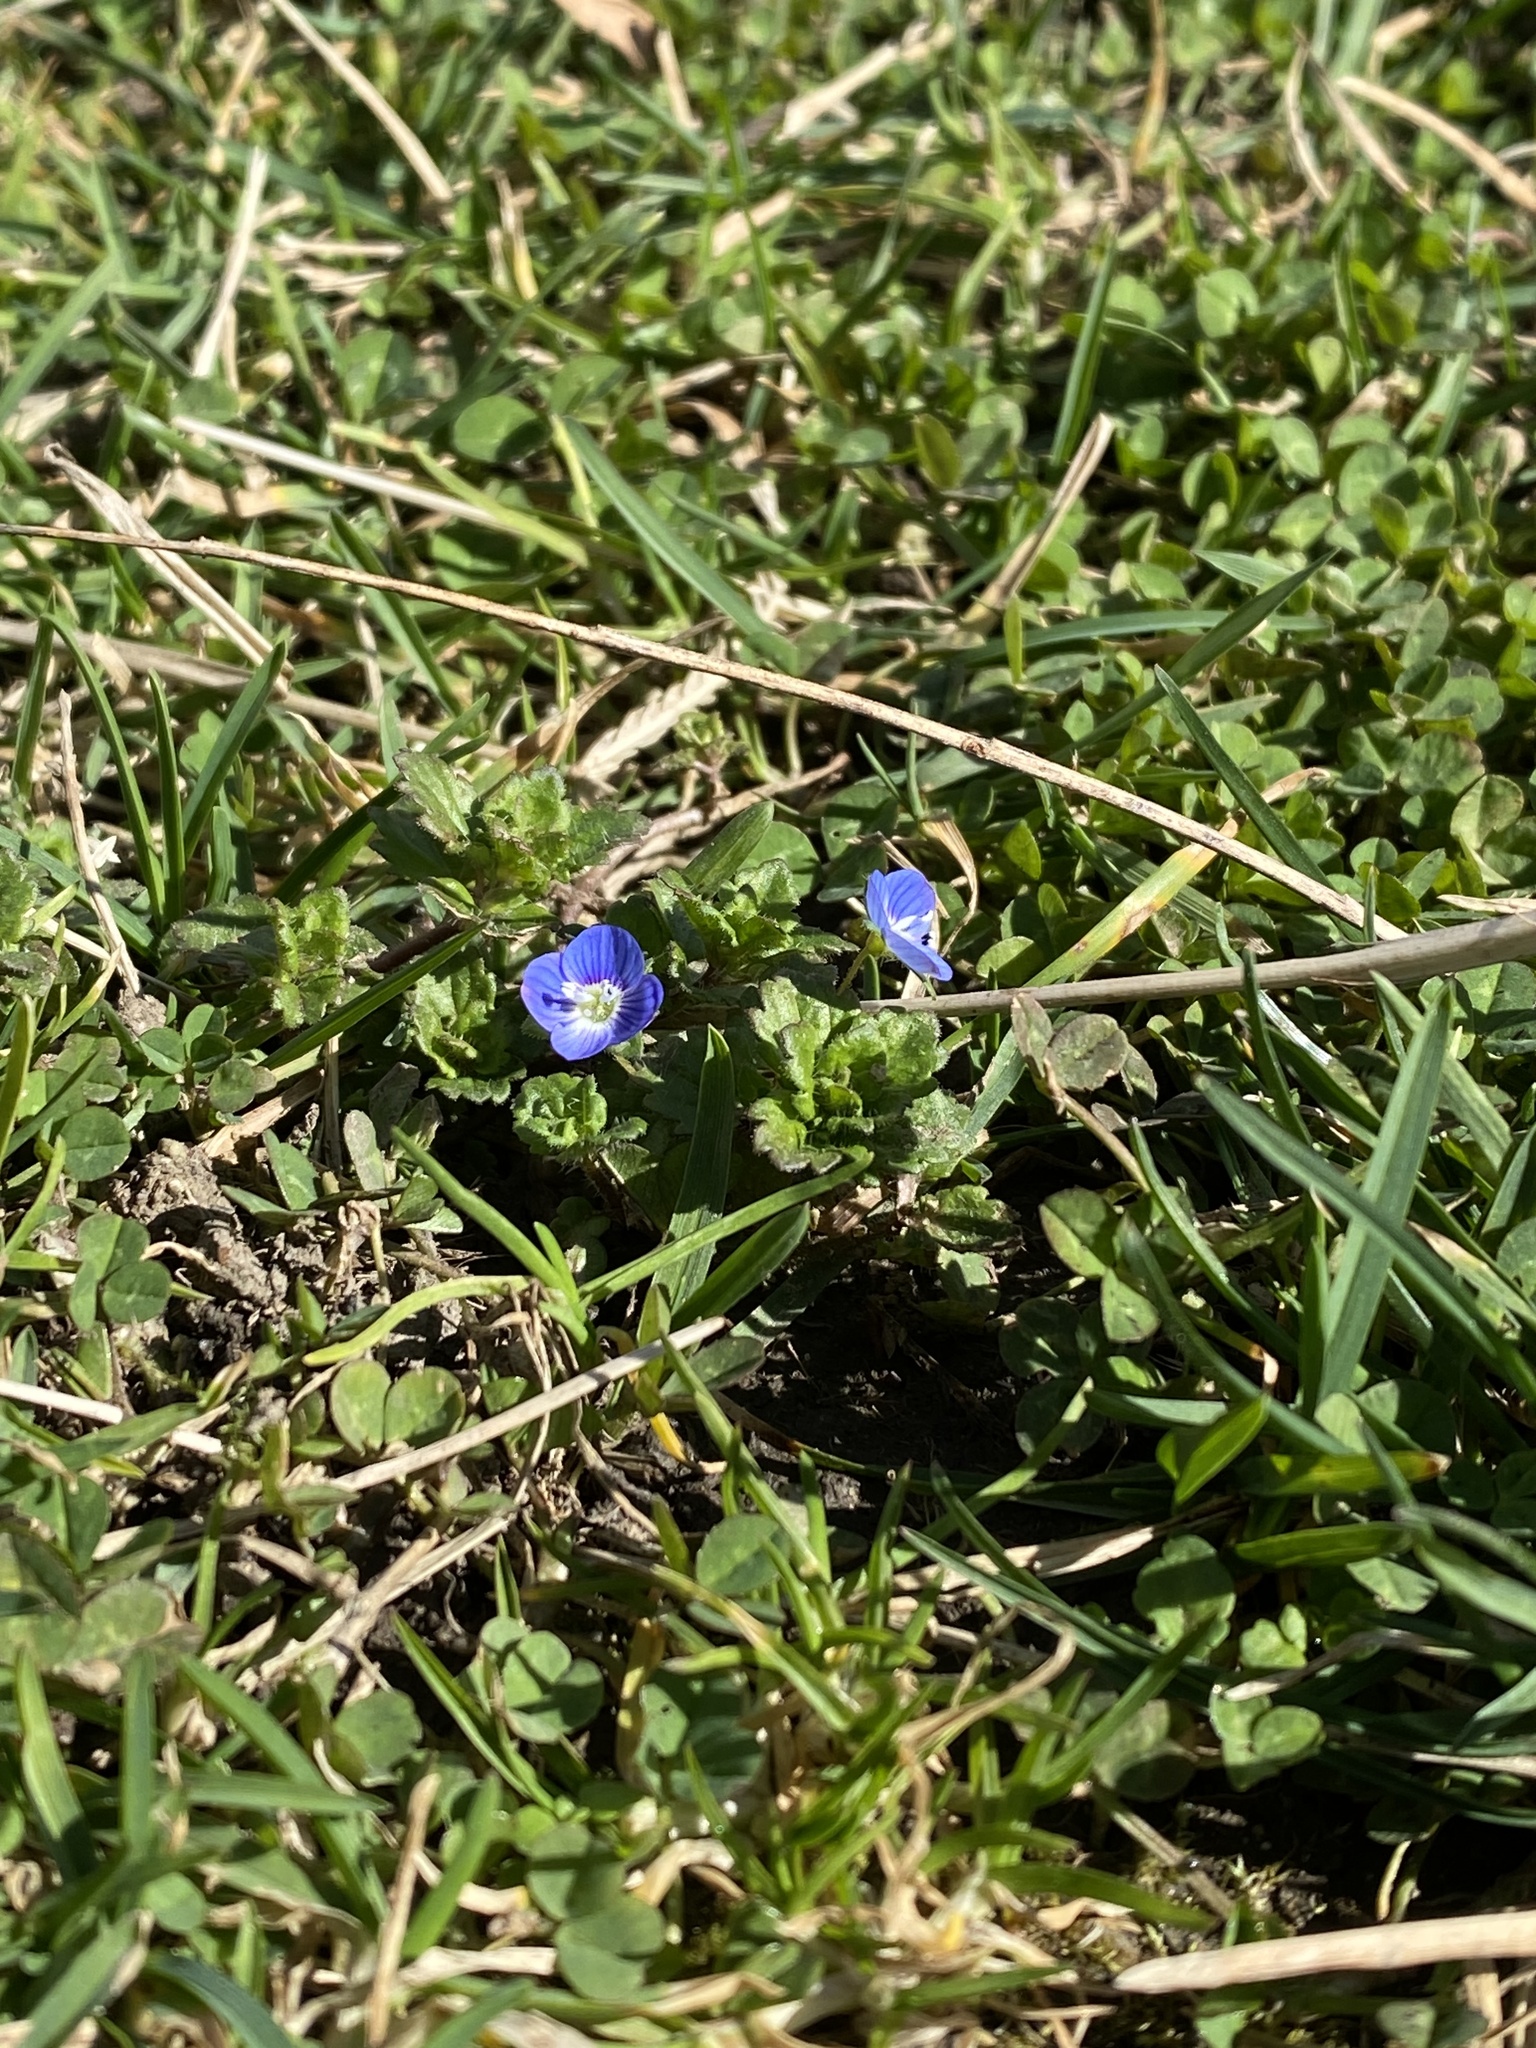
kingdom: Plantae
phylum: Tracheophyta
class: Magnoliopsida
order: Lamiales
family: Plantaginaceae
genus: Veronica
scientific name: Veronica persica
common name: Common field-speedwell
